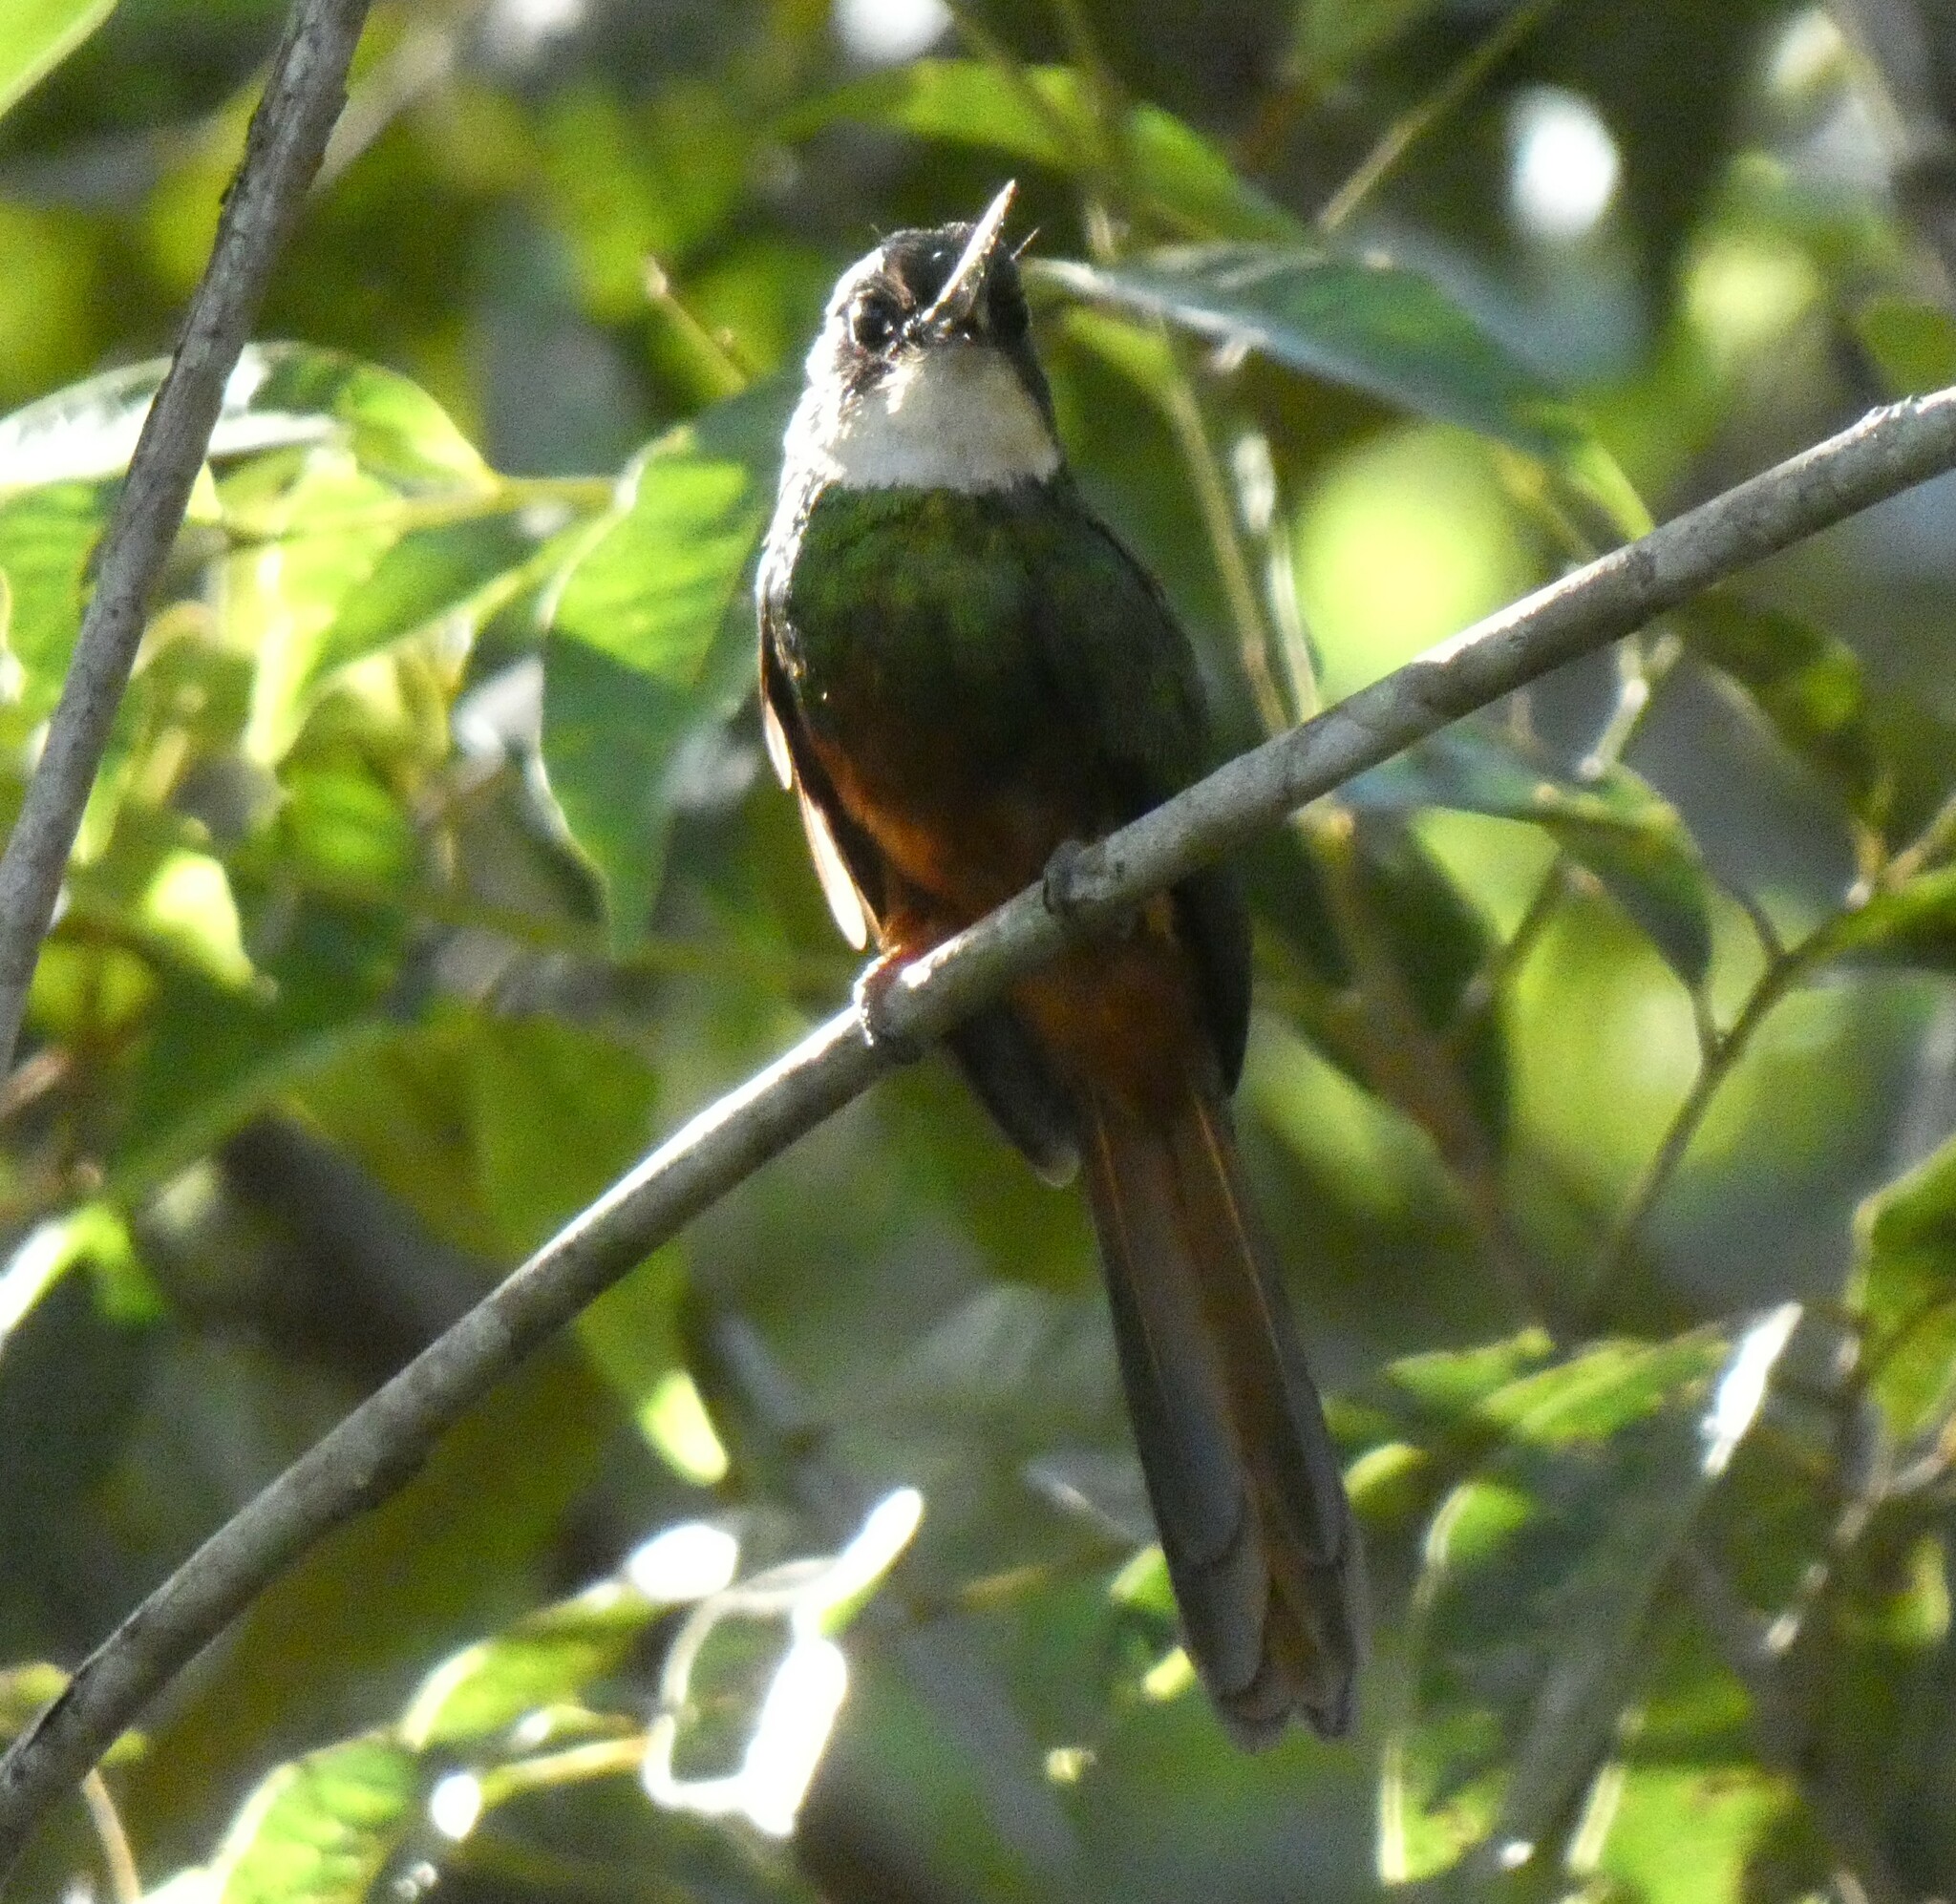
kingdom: Animalia
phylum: Chordata
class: Aves
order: Piciformes
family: Galbulidae
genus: Galbula
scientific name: Galbula ruficauda
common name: Rufous-tailed jacamar
